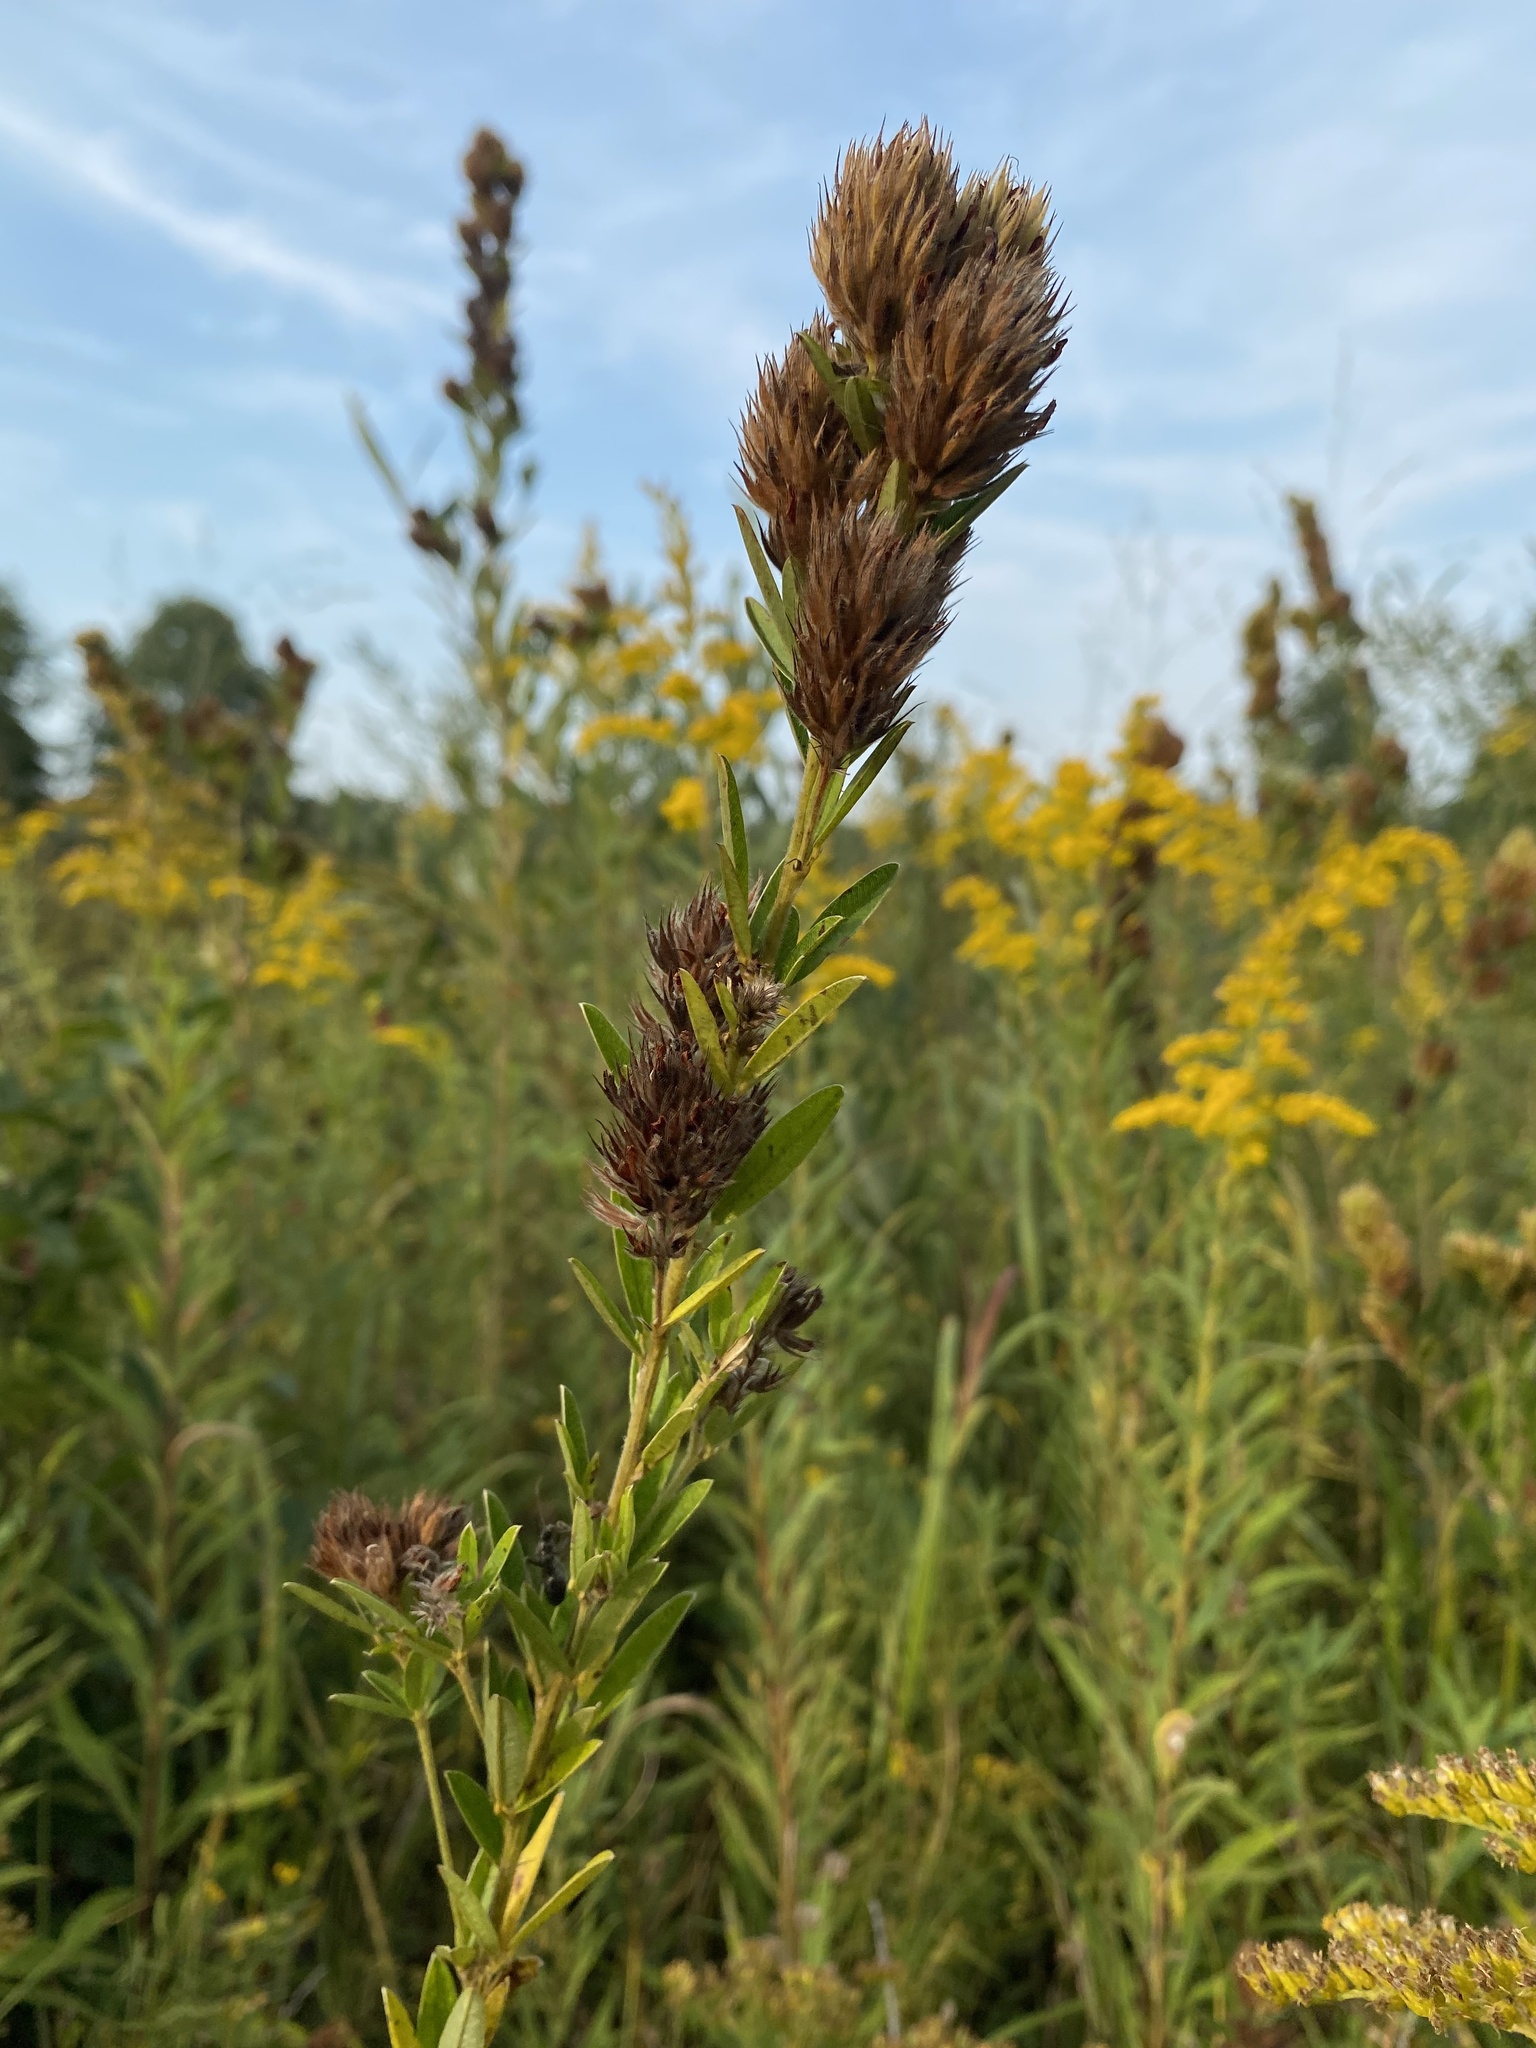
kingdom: Plantae
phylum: Tracheophyta
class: Magnoliopsida
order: Fabales
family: Fabaceae
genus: Lespedeza
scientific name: Lespedeza capitata
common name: Dusty clover
